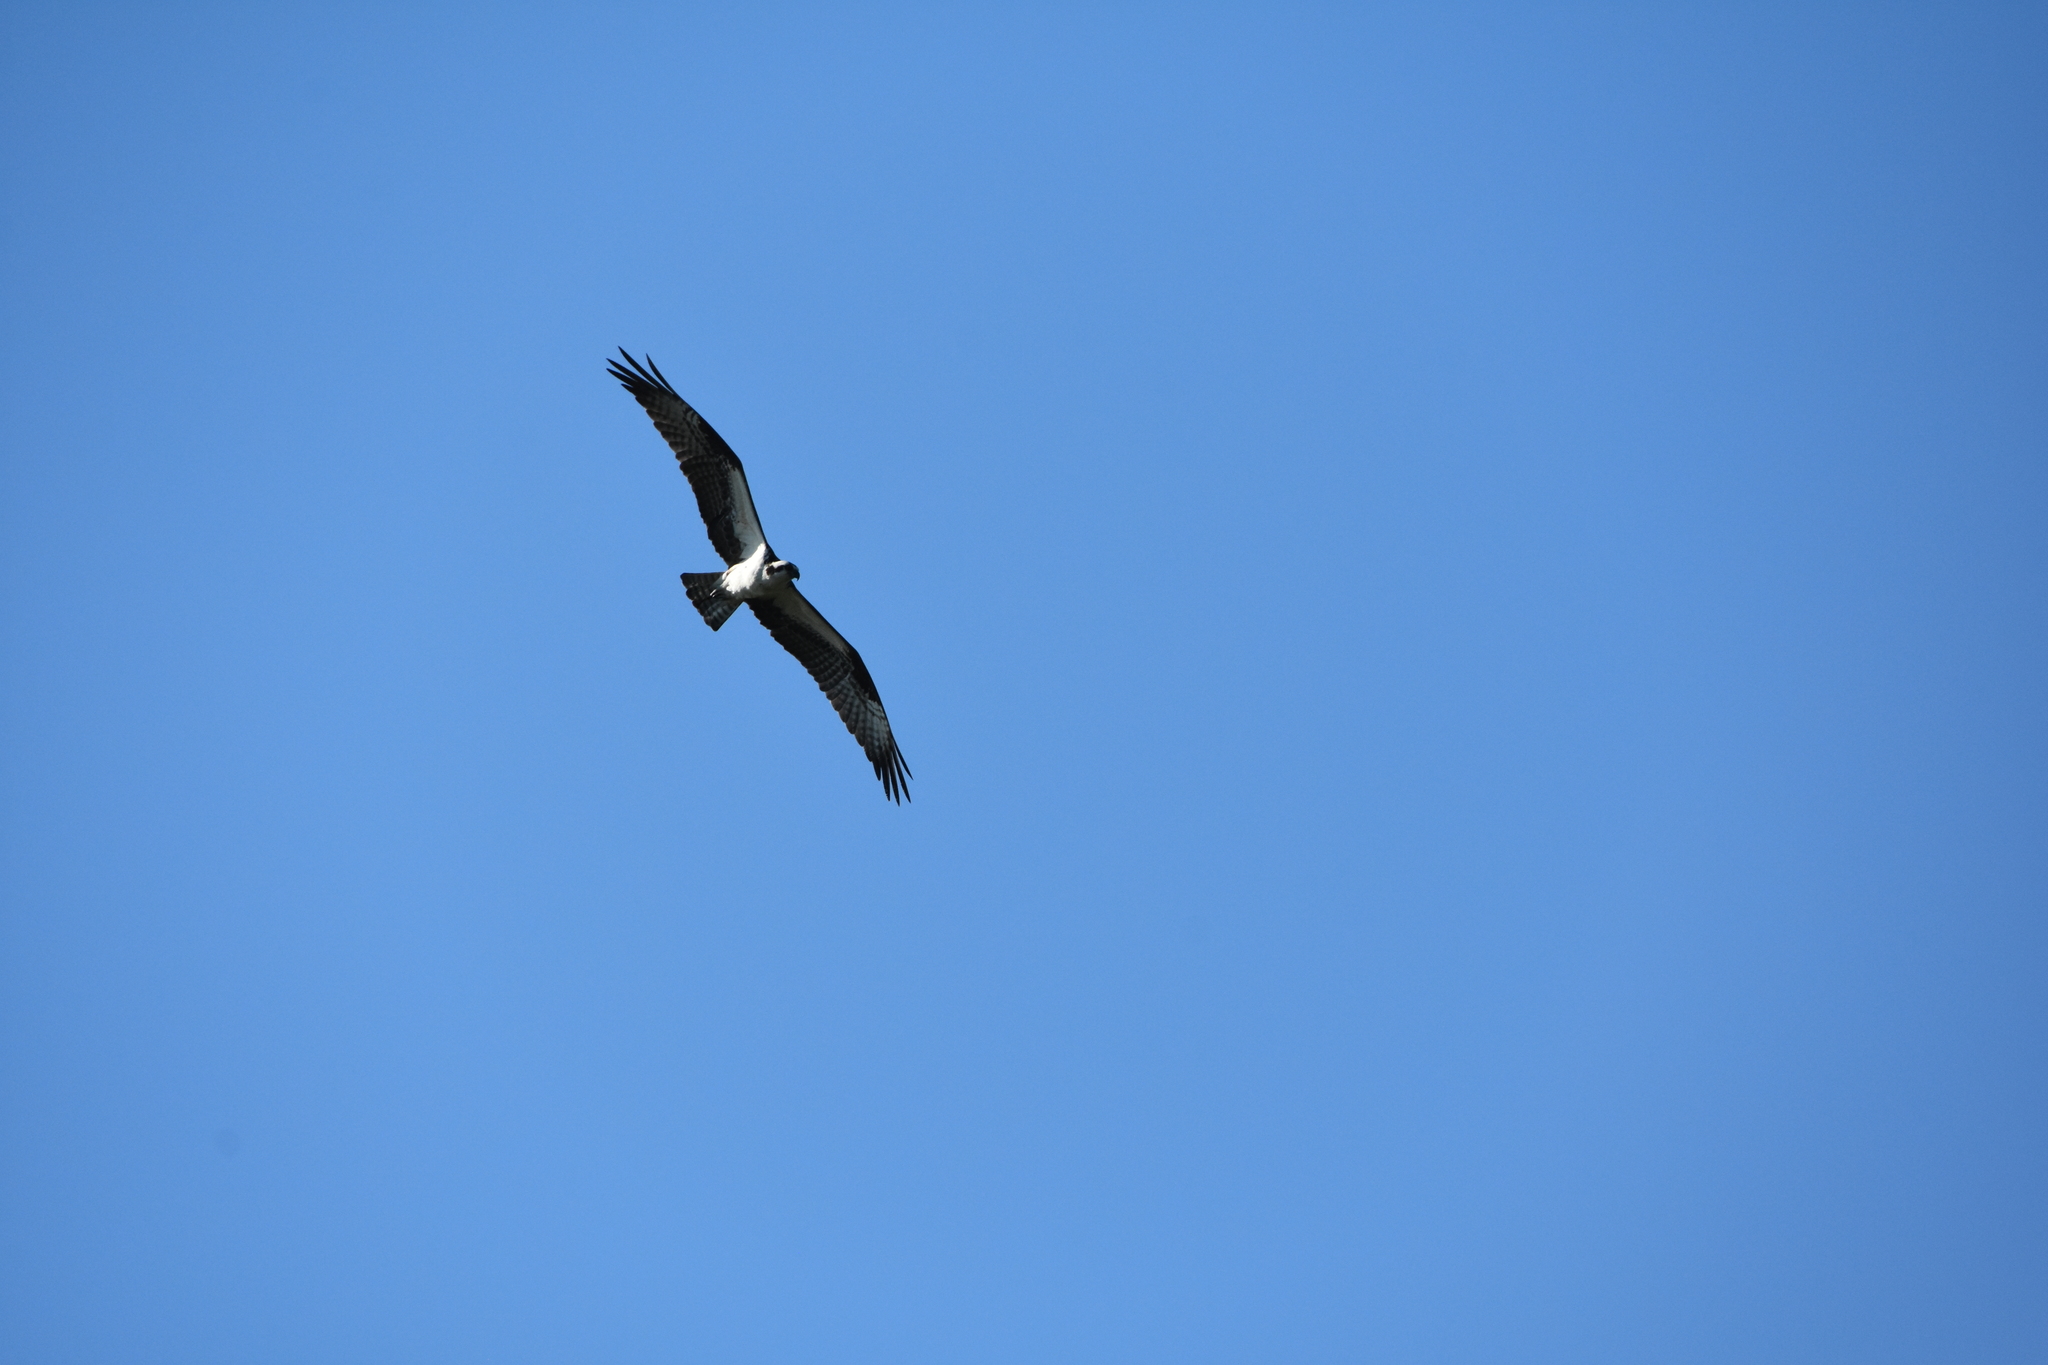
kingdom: Animalia
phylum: Chordata
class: Aves
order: Accipitriformes
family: Pandionidae
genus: Pandion
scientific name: Pandion haliaetus
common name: Osprey
